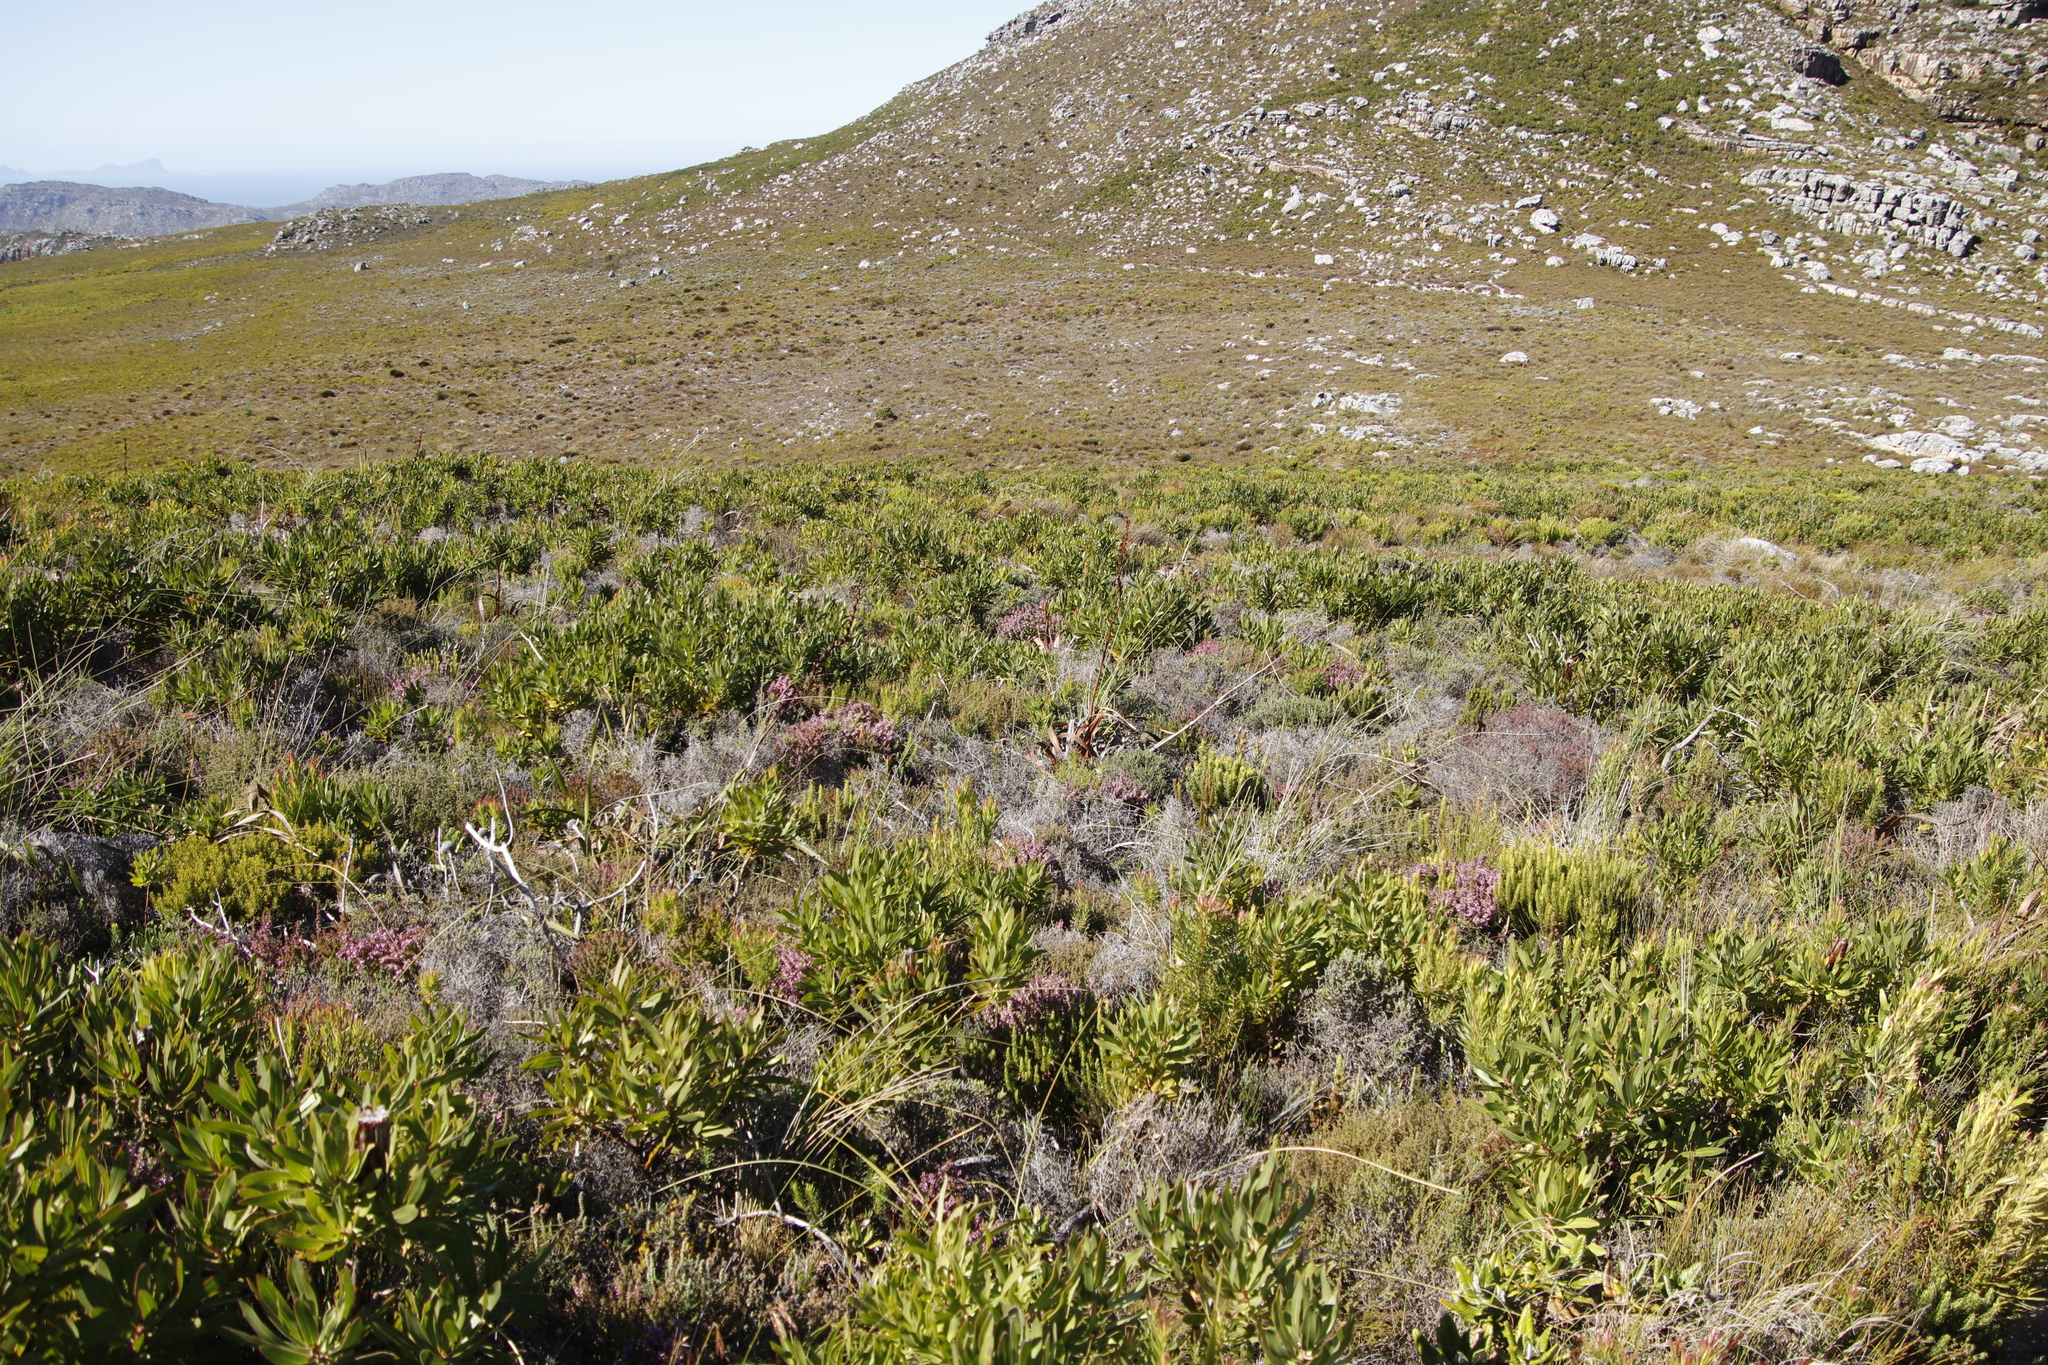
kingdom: Plantae
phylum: Tracheophyta
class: Magnoliopsida
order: Proteales
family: Proteaceae
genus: Protea
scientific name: Protea lepidocarpodendron
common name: Black-bearded protea
